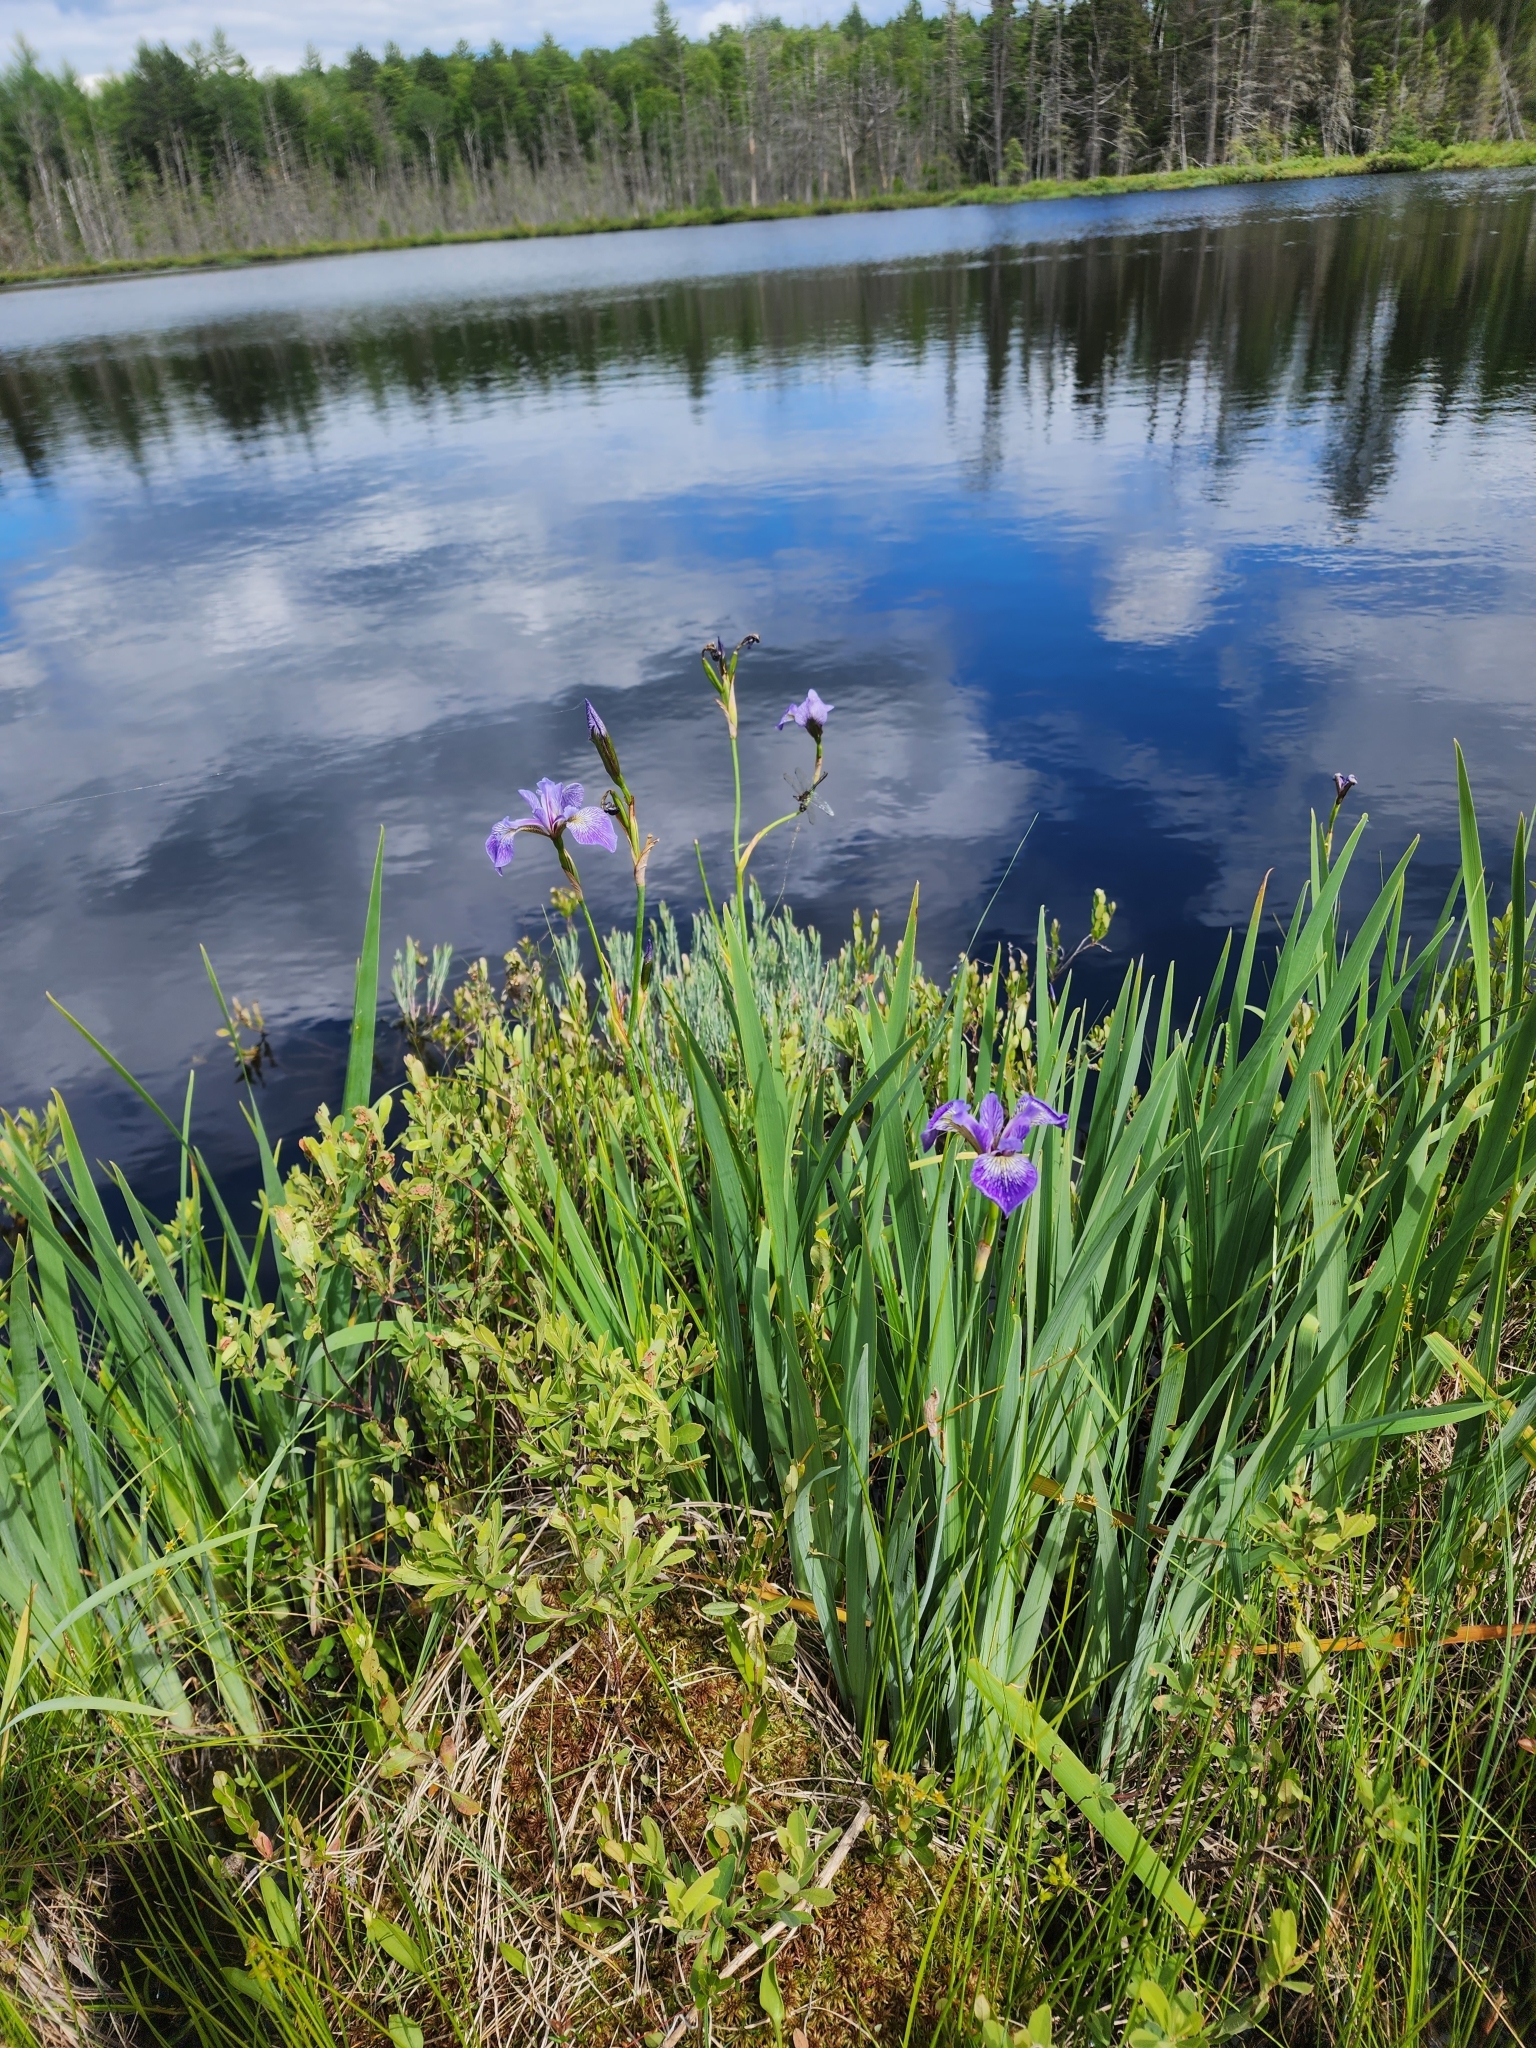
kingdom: Plantae
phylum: Tracheophyta
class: Liliopsida
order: Asparagales
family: Iridaceae
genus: Iris
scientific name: Iris versicolor
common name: Purple iris
